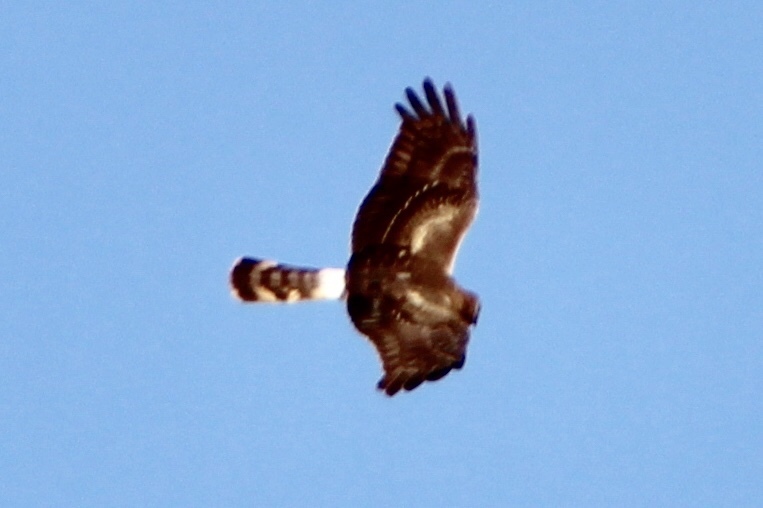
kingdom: Animalia
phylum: Chordata
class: Aves
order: Accipitriformes
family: Accipitridae
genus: Circus
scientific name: Circus cyaneus
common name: Hen harrier
